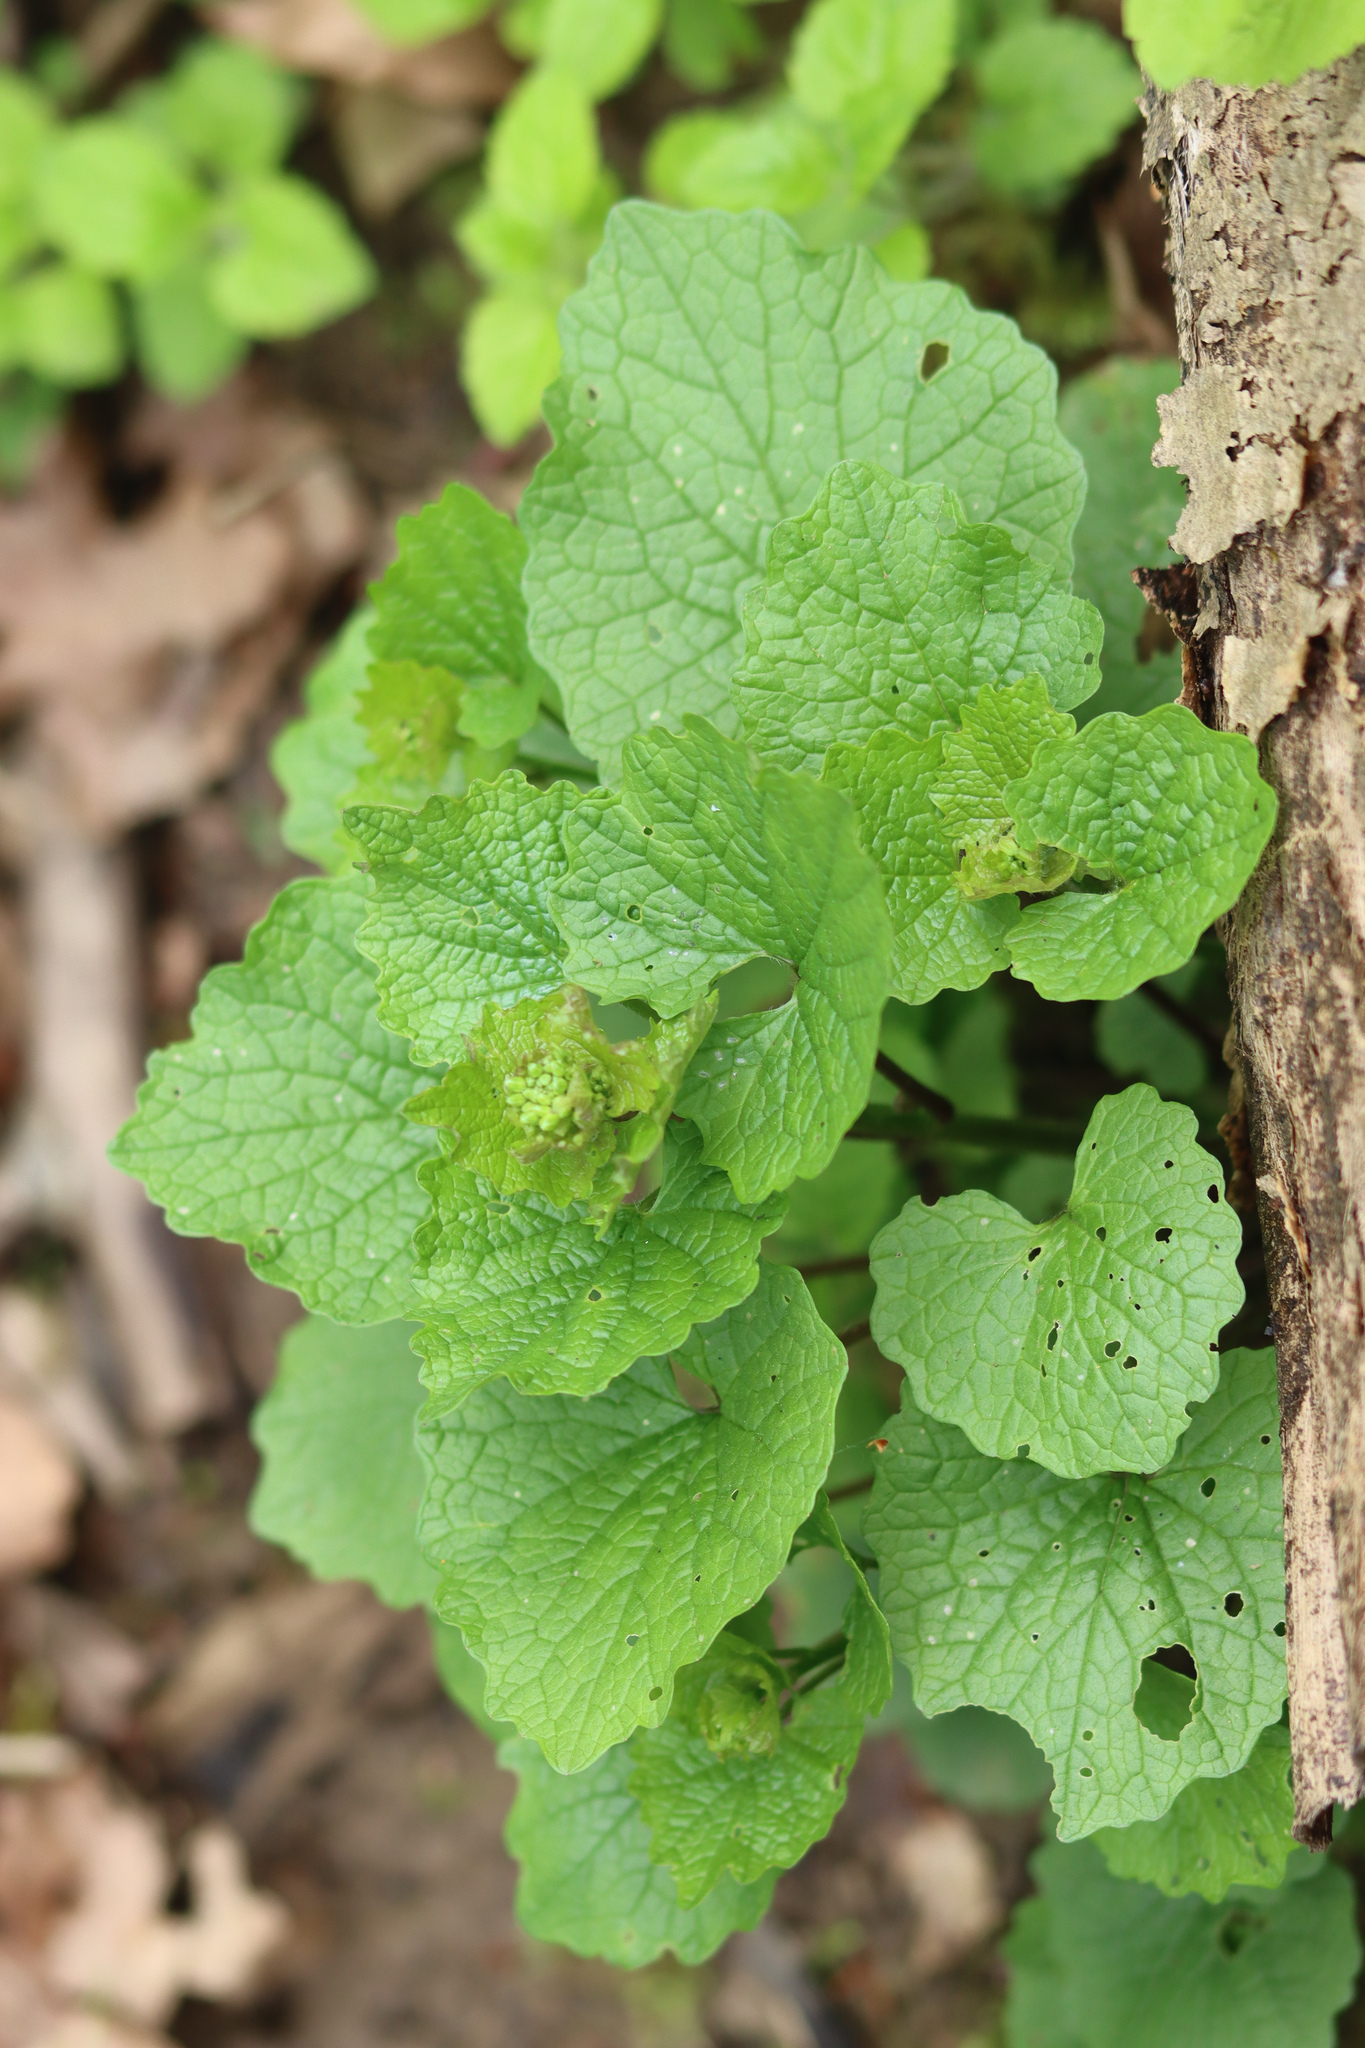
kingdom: Plantae
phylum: Tracheophyta
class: Magnoliopsida
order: Brassicales
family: Brassicaceae
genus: Alliaria
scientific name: Alliaria petiolata
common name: Garlic mustard
